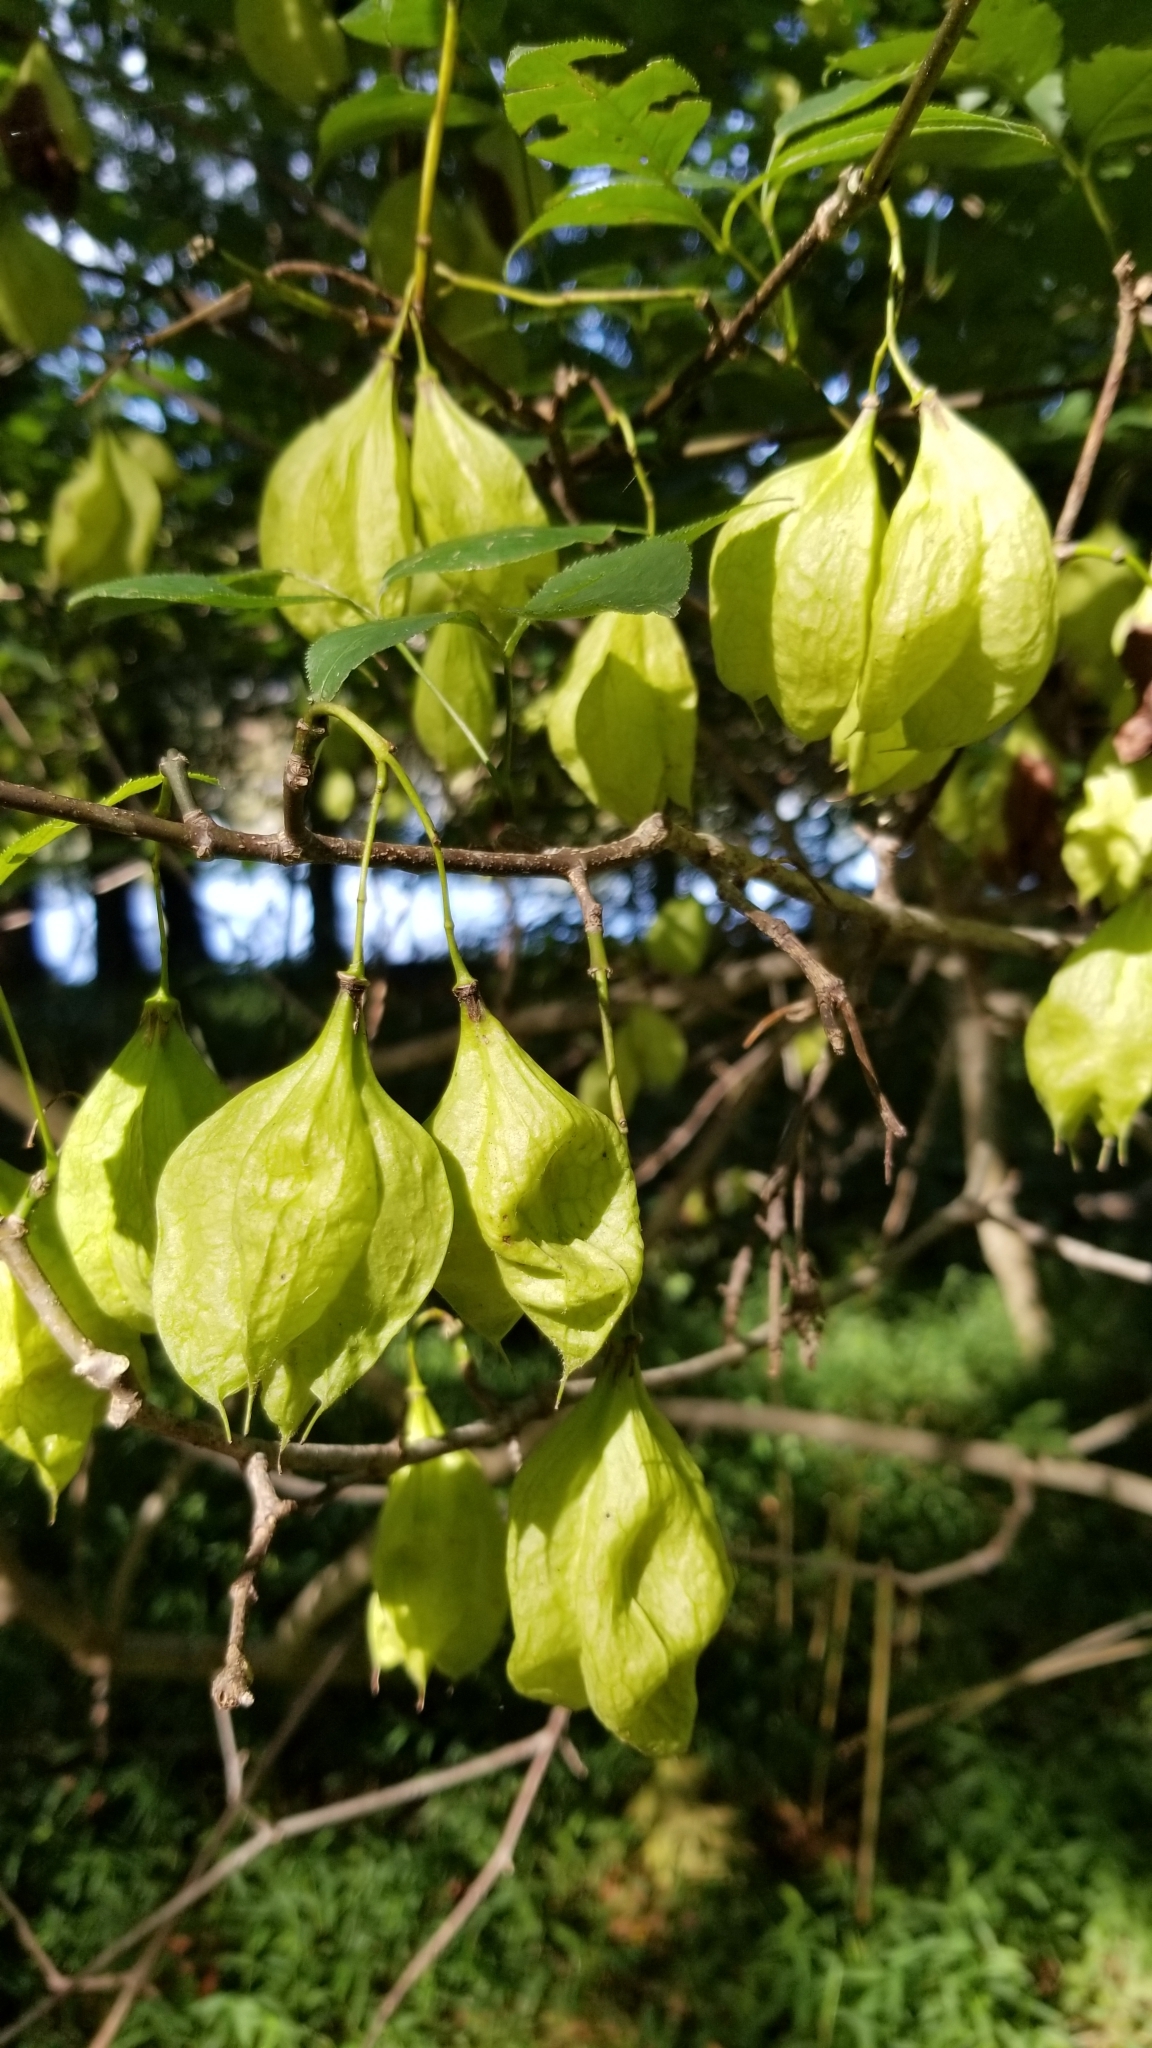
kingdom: Plantae
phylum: Tracheophyta
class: Magnoliopsida
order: Crossosomatales
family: Staphyleaceae
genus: Staphylea
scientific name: Staphylea trifolia
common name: American bladdernut
